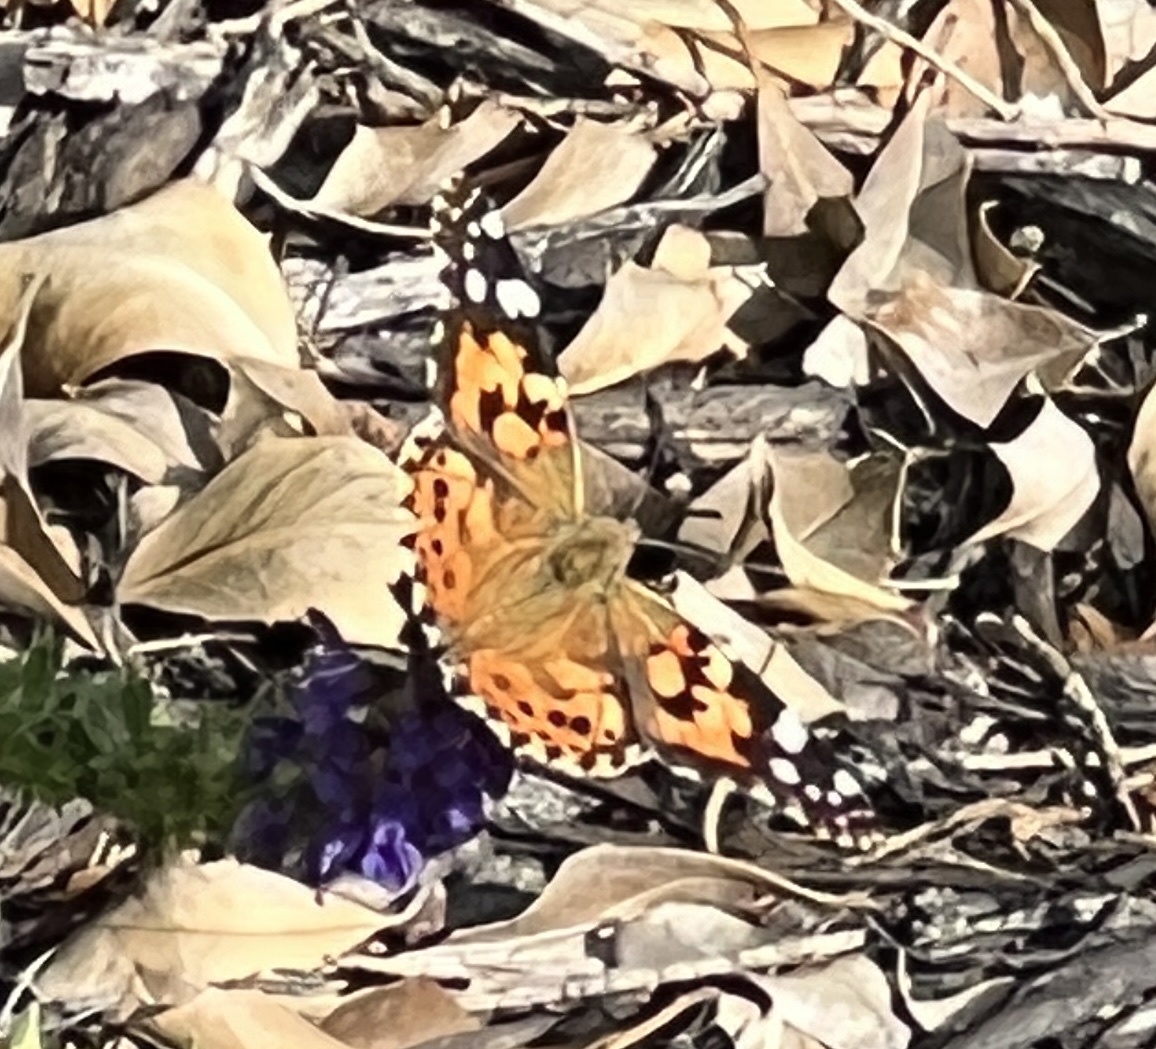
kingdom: Animalia
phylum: Arthropoda
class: Insecta
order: Lepidoptera
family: Nymphalidae
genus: Vanessa
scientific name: Vanessa cardui
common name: Painted lady
